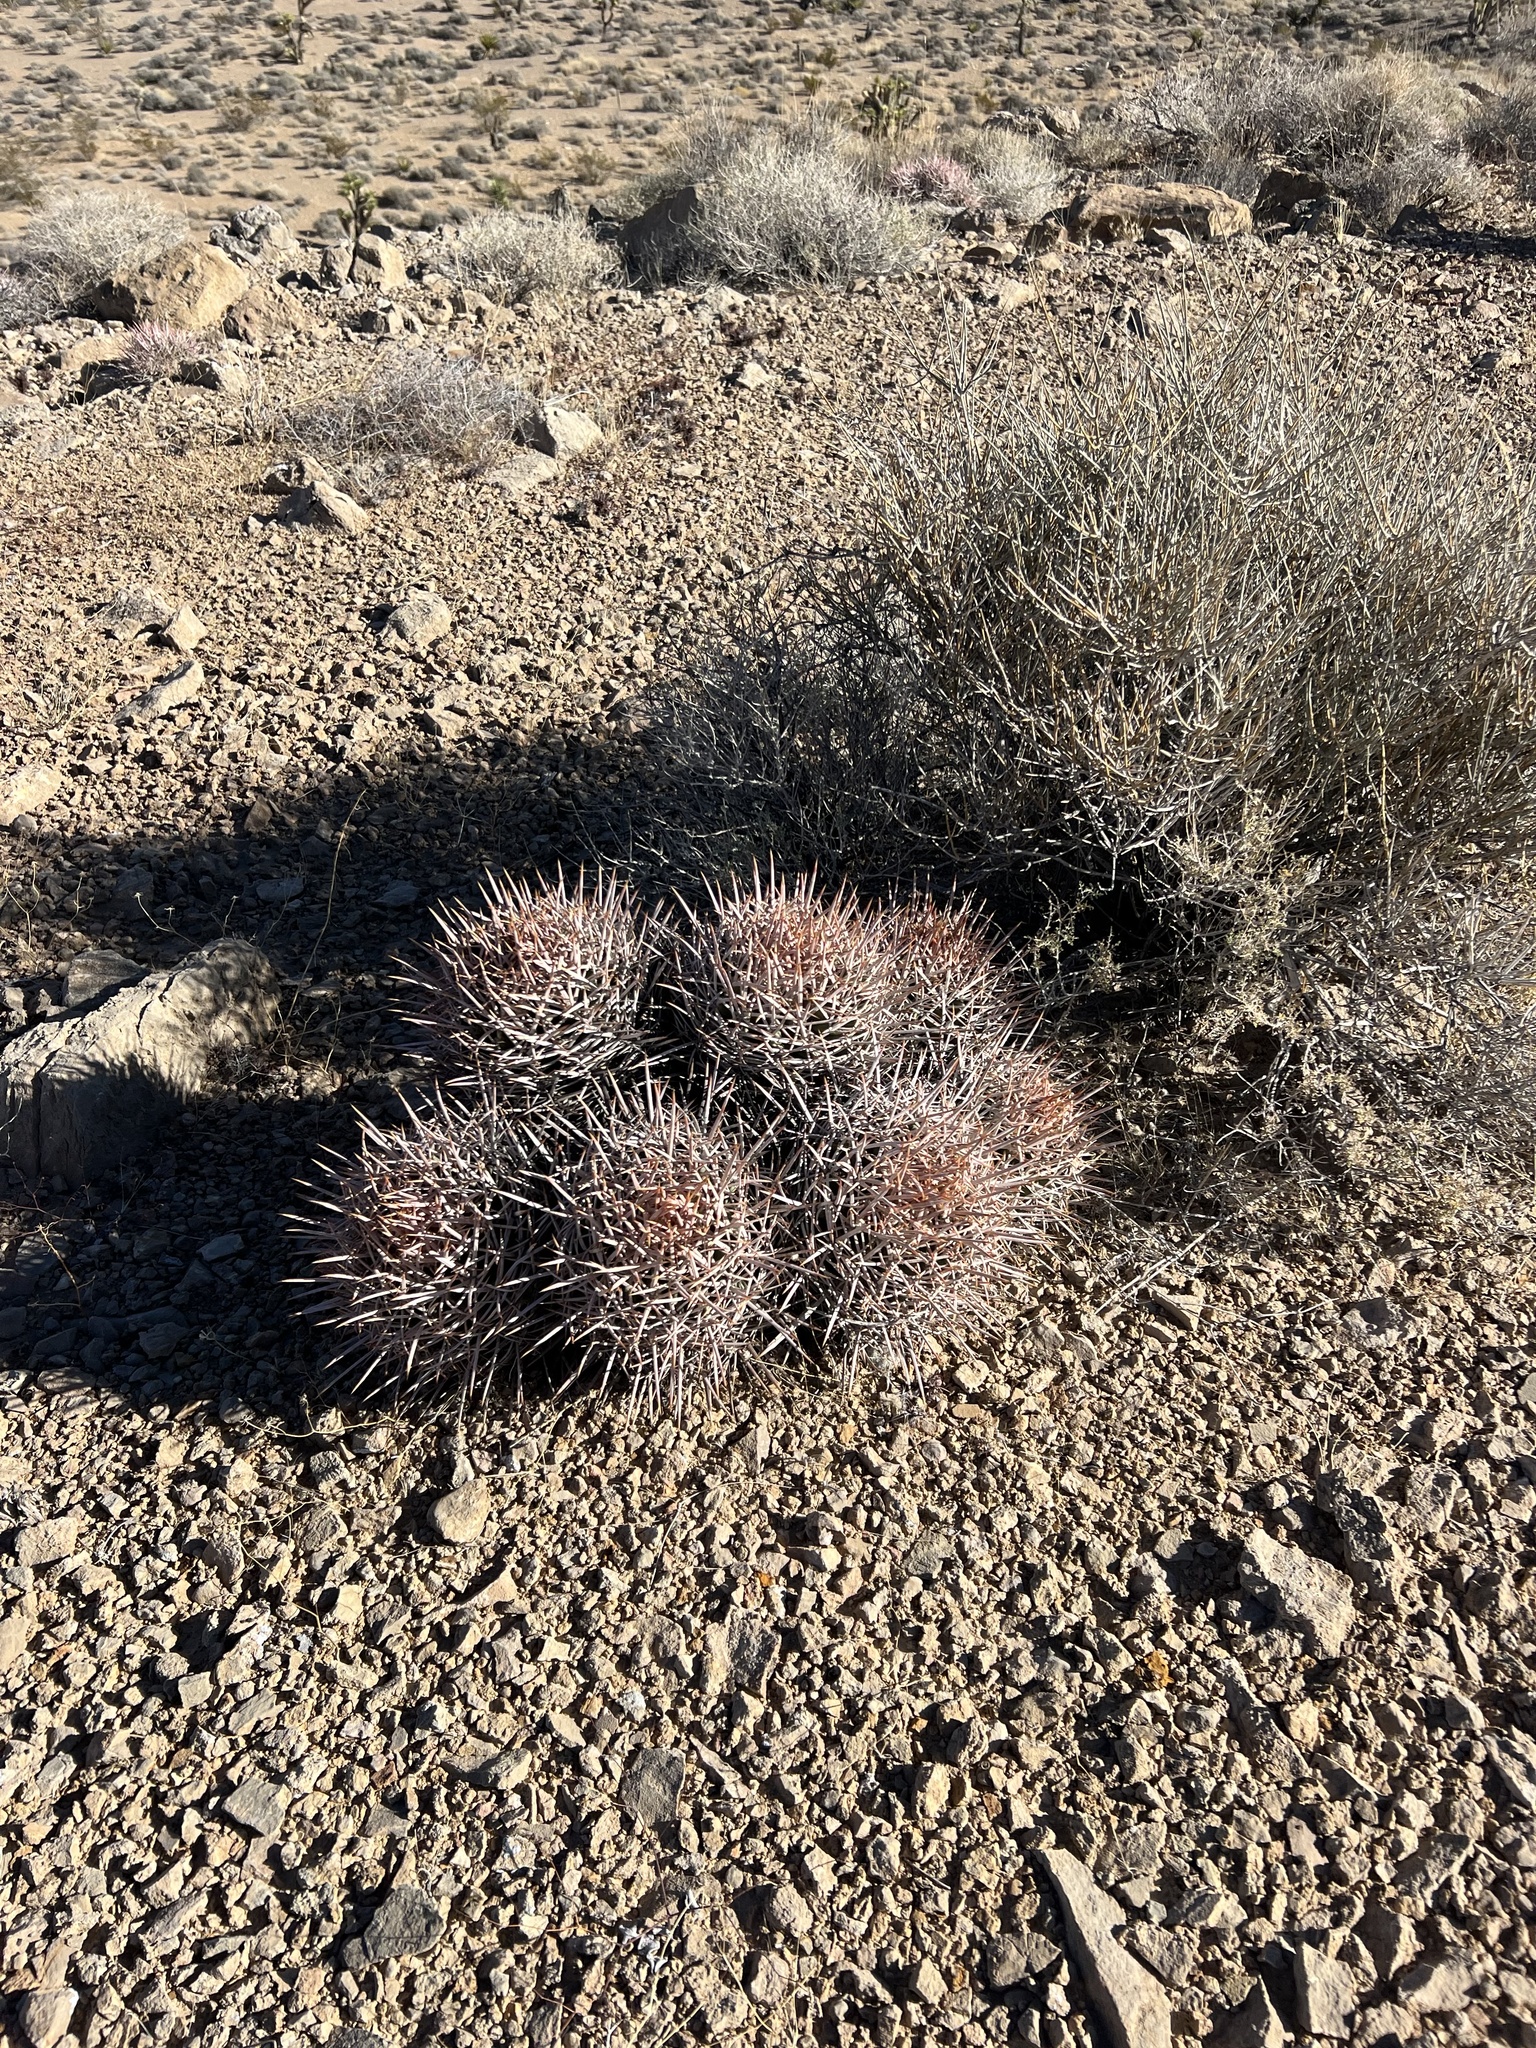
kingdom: Plantae
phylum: Tracheophyta
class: Magnoliopsida
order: Caryophyllales
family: Cactaceae
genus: Echinocactus
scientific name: Echinocactus polycephalus
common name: Cottontop cactus
